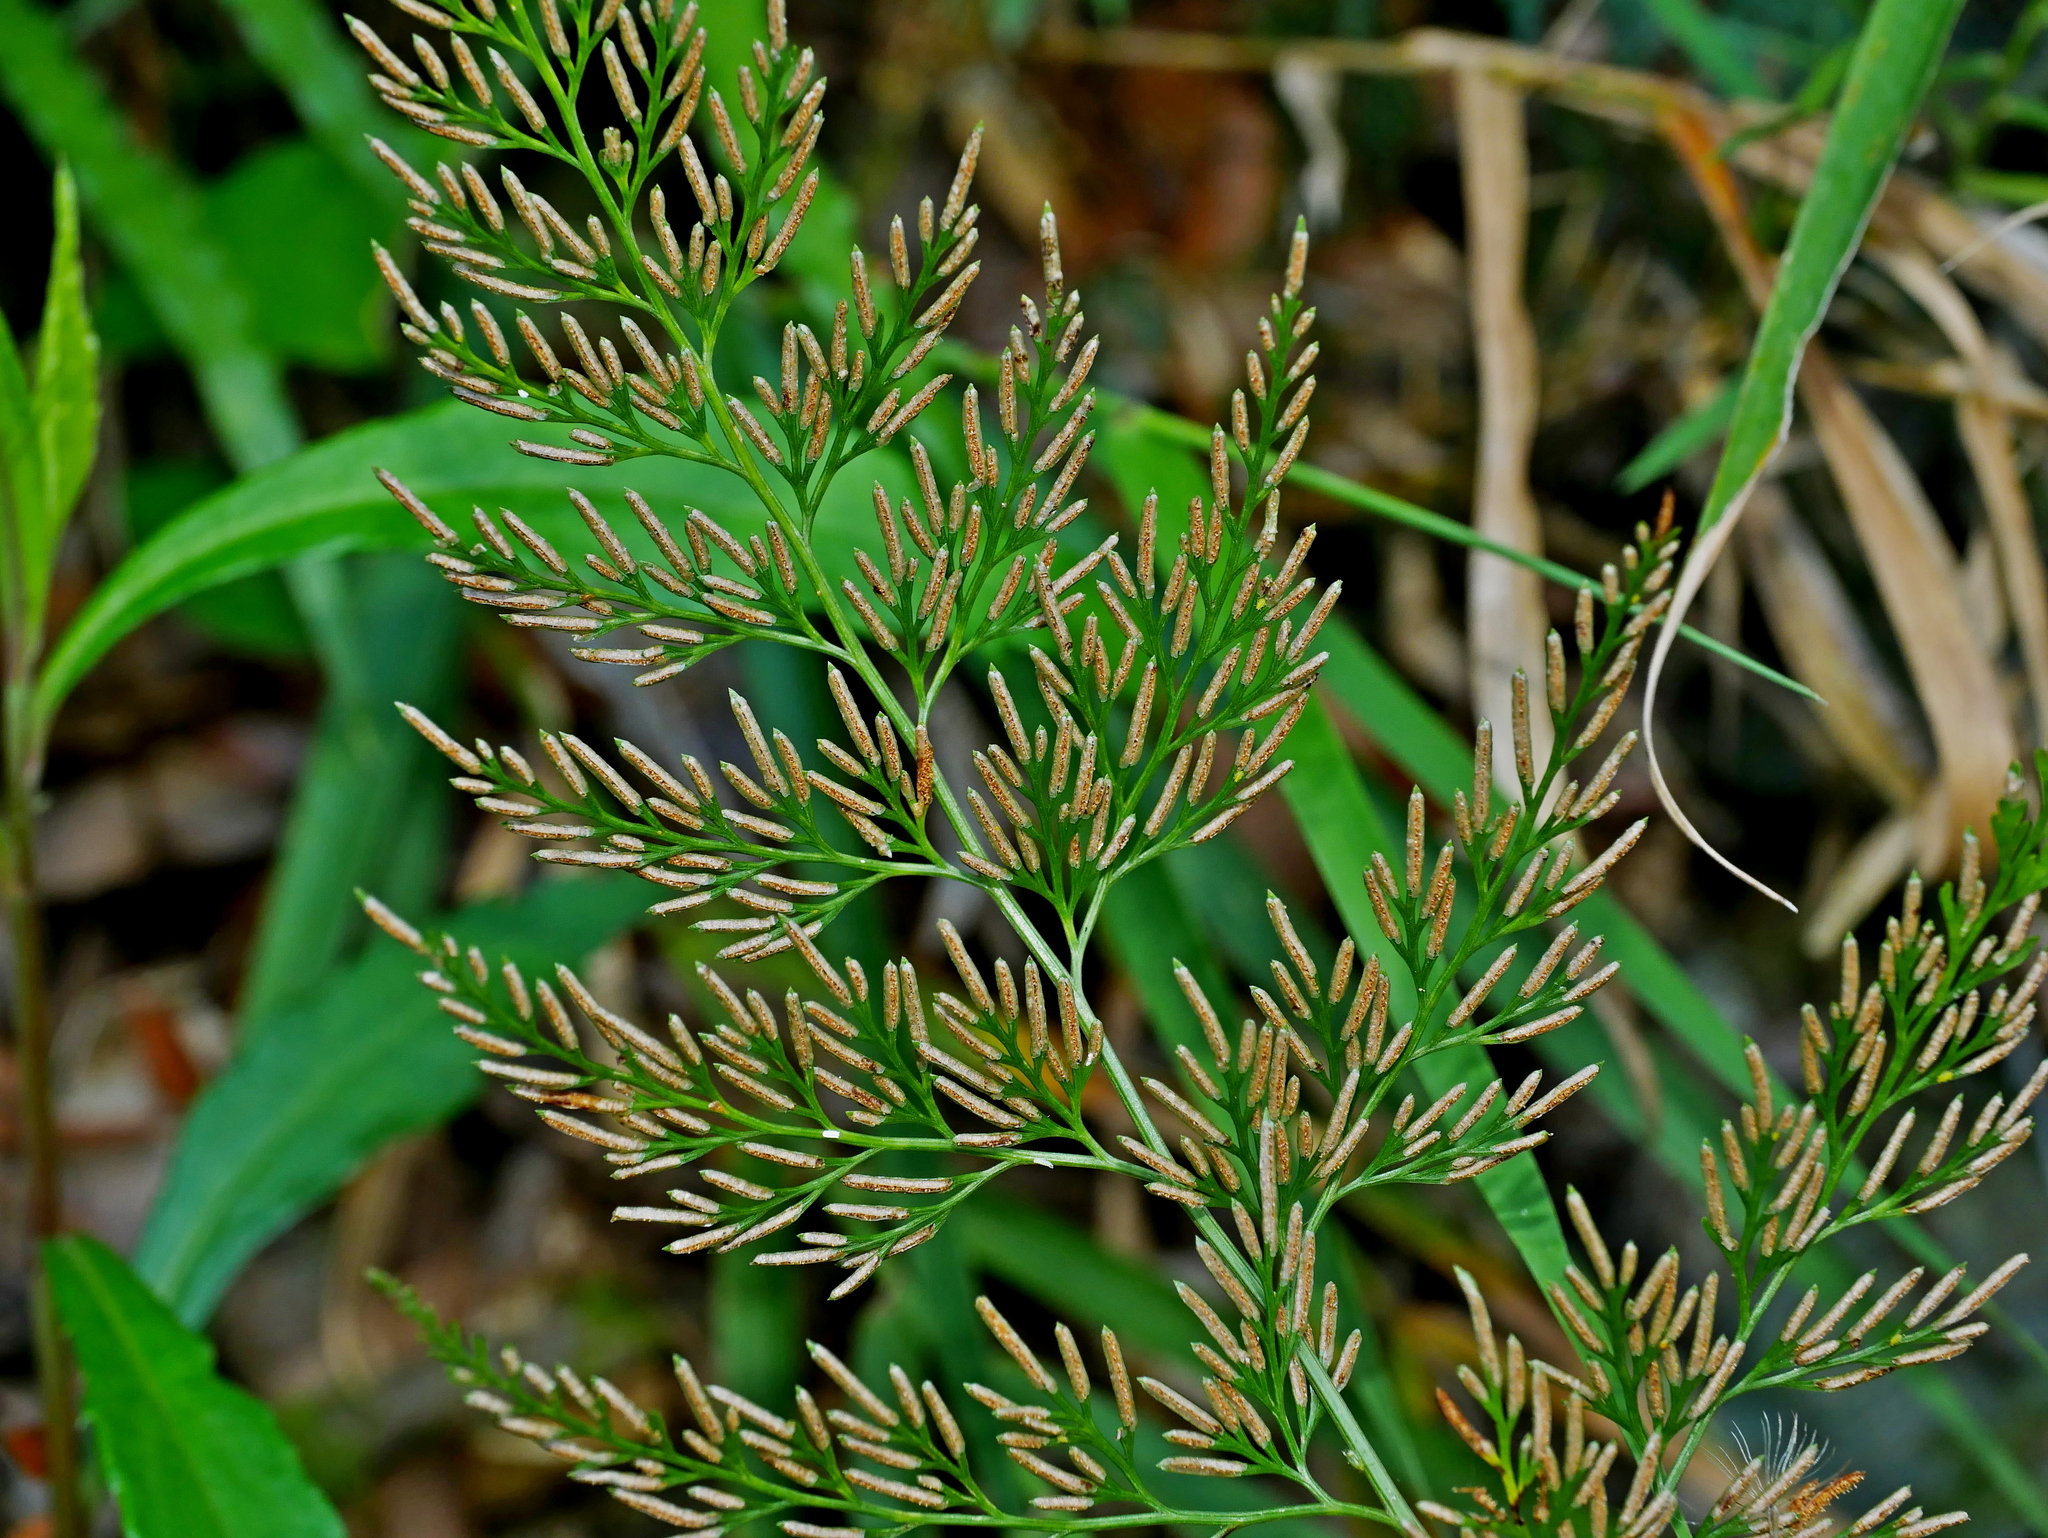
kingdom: Plantae
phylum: Tracheophyta
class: Polypodiopsida
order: Polypodiales
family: Pteridaceae
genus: Onychium
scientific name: Onychium japonicum
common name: Carrot fern
